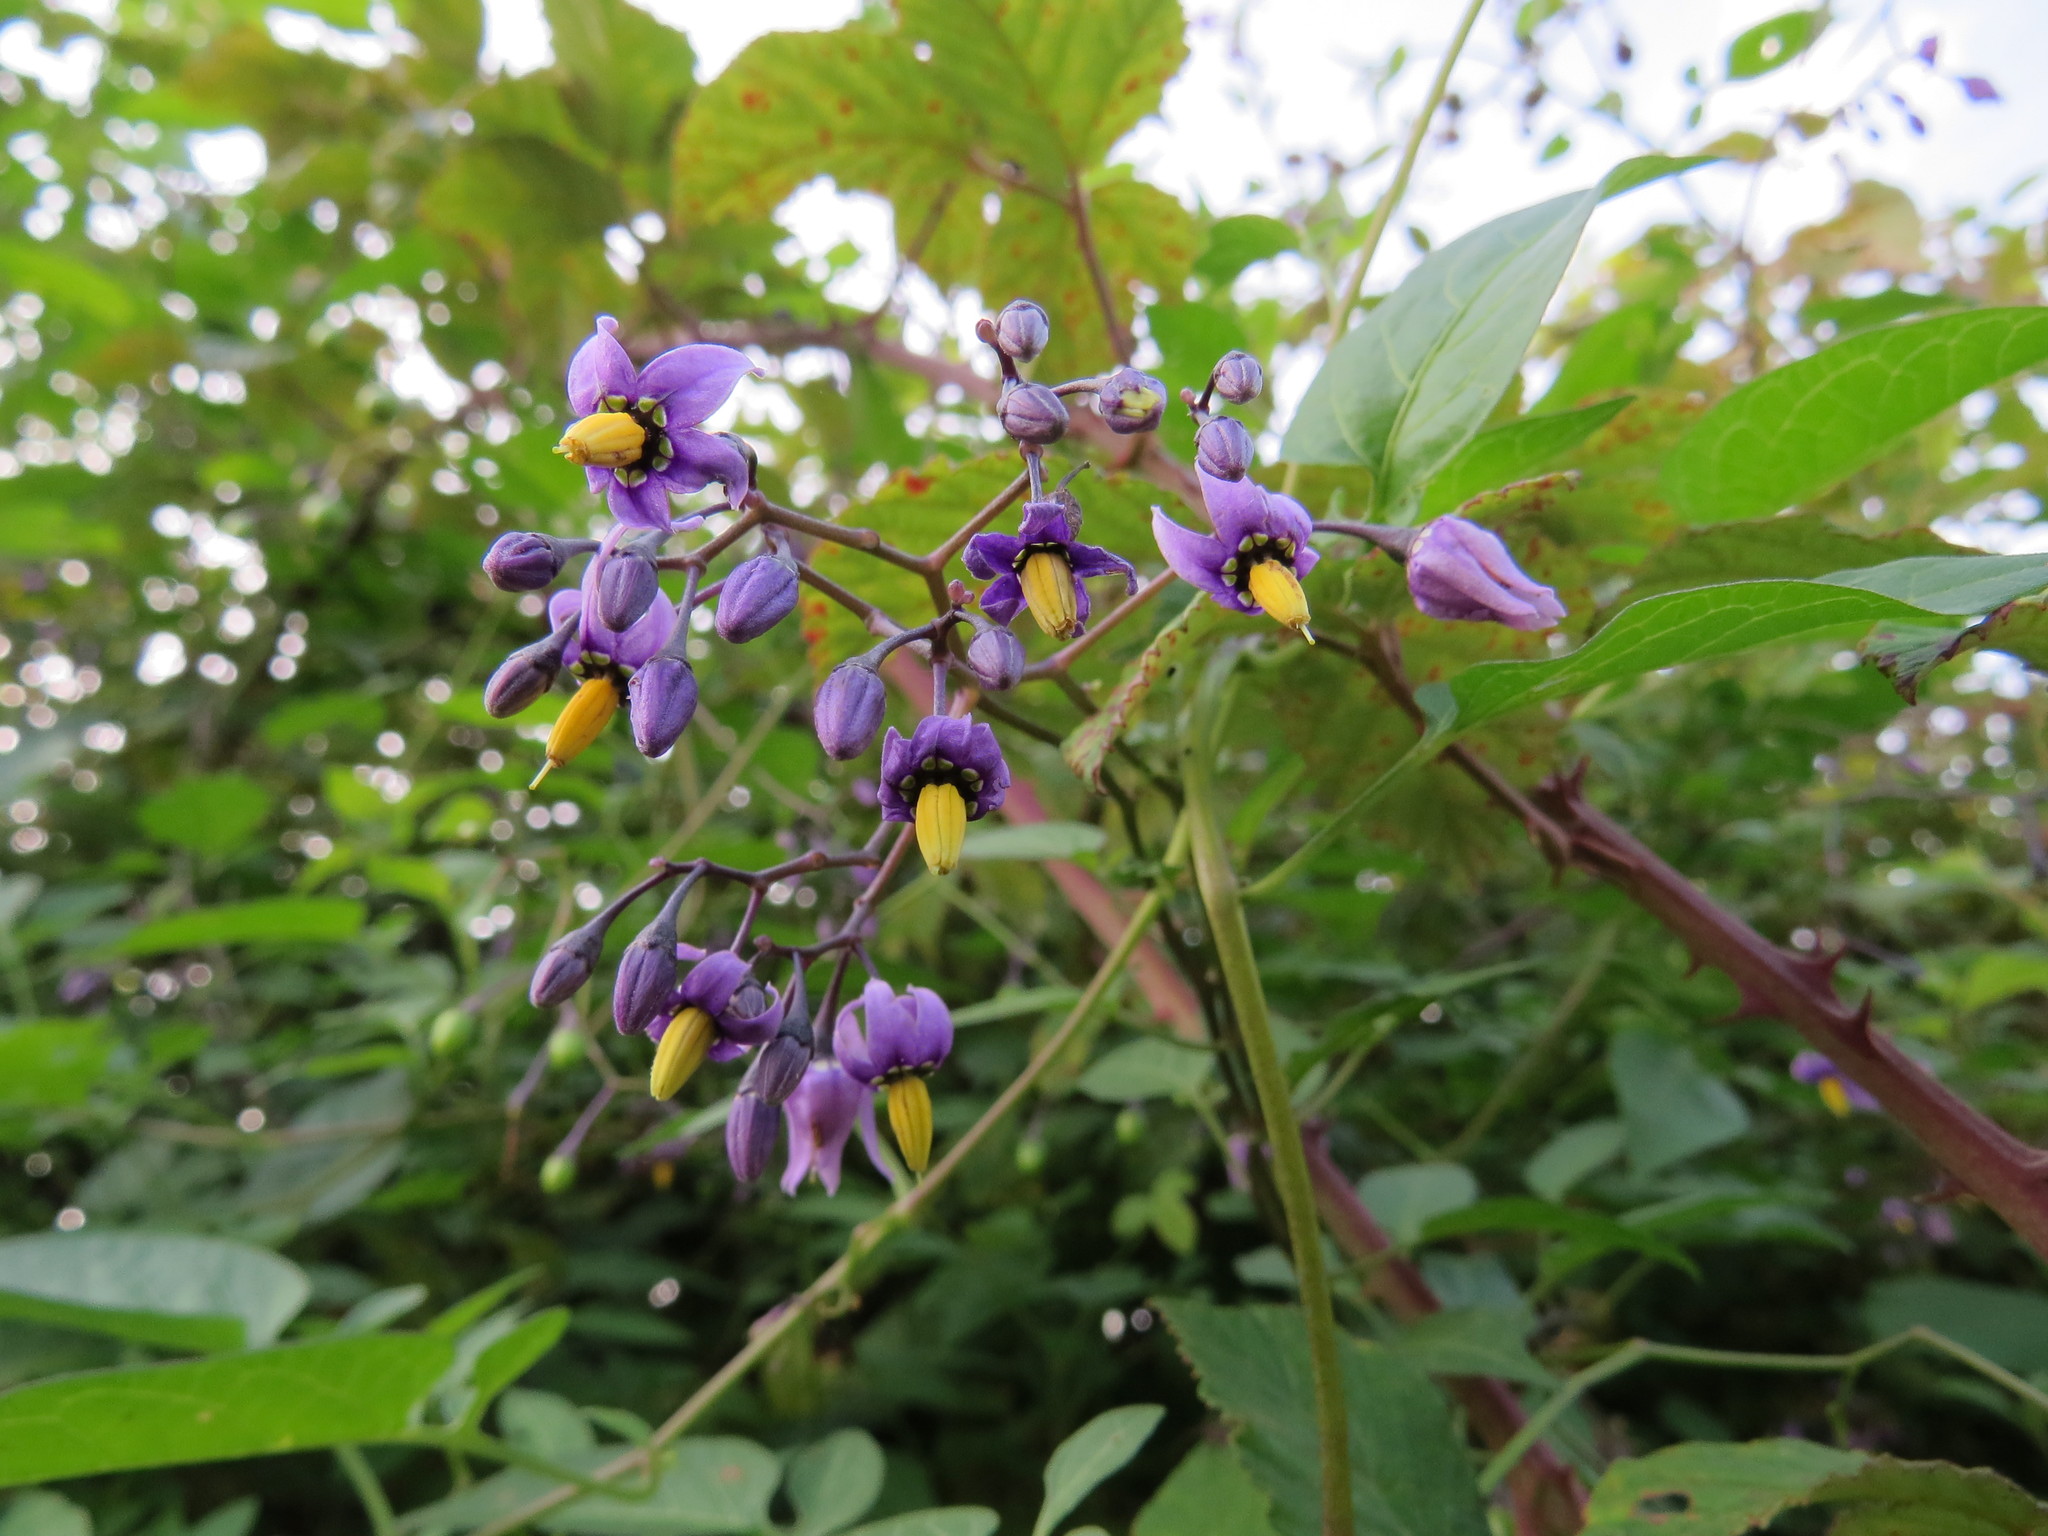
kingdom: Plantae
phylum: Tracheophyta
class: Magnoliopsida
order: Solanales
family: Solanaceae
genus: Solanum
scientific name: Solanum dulcamara
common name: Climbing nightshade
